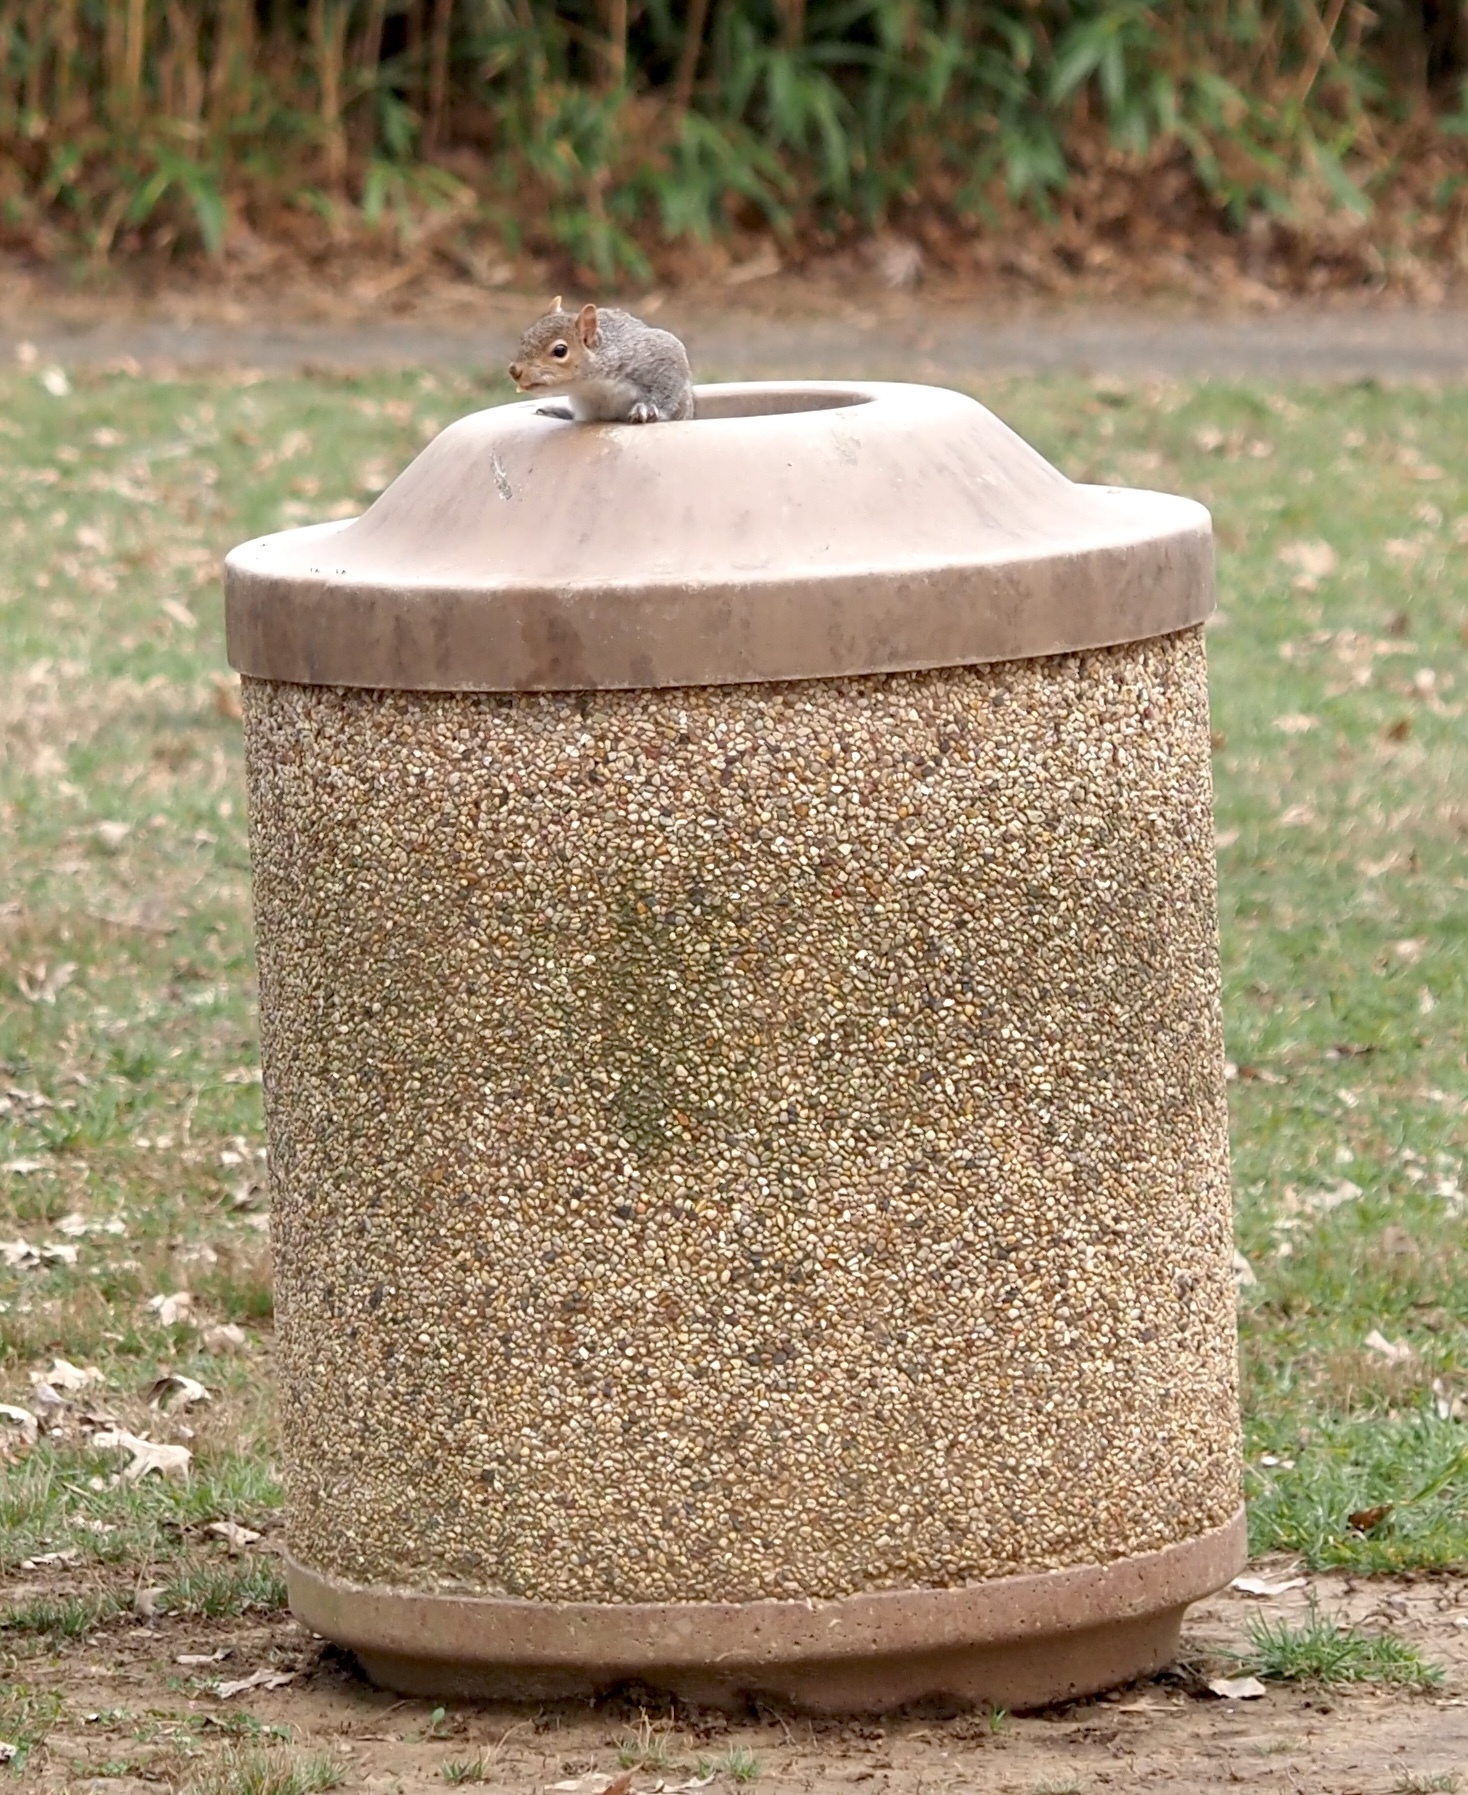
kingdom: Animalia
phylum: Chordata
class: Mammalia
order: Rodentia
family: Sciuridae
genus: Sciurus
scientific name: Sciurus carolinensis
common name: Eastern gray squirrel
